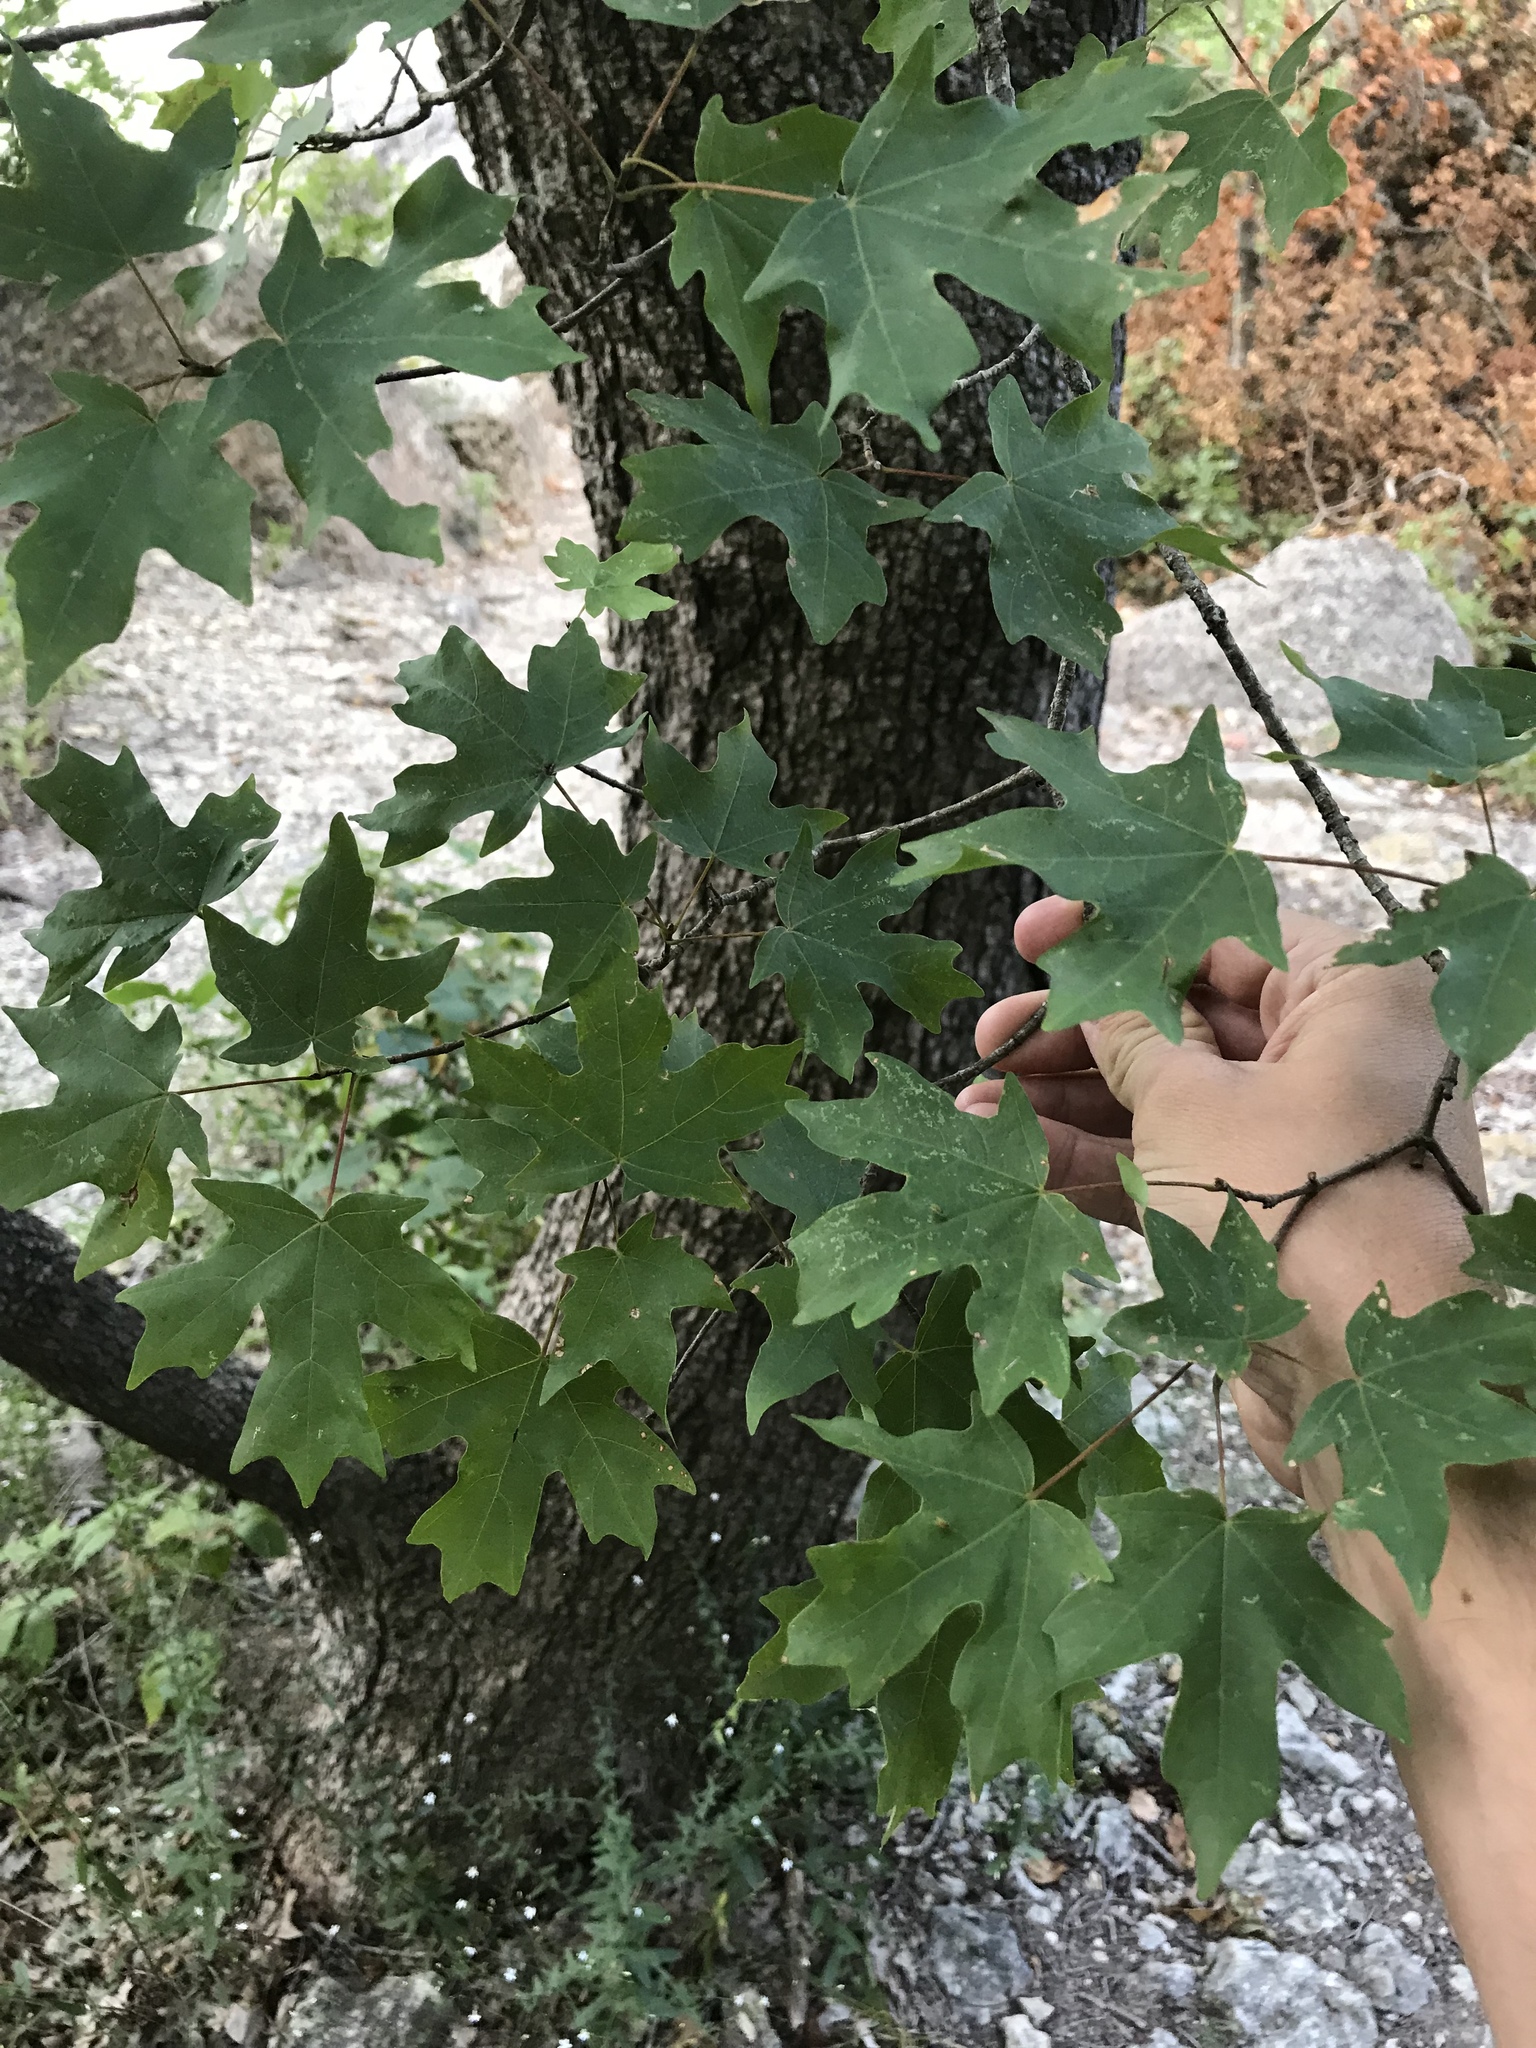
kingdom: Plantae
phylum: Tracheophyta
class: Magnoliopsida
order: Sapindales
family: Sapindaceae
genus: Acer
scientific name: Acer grandidentatum
